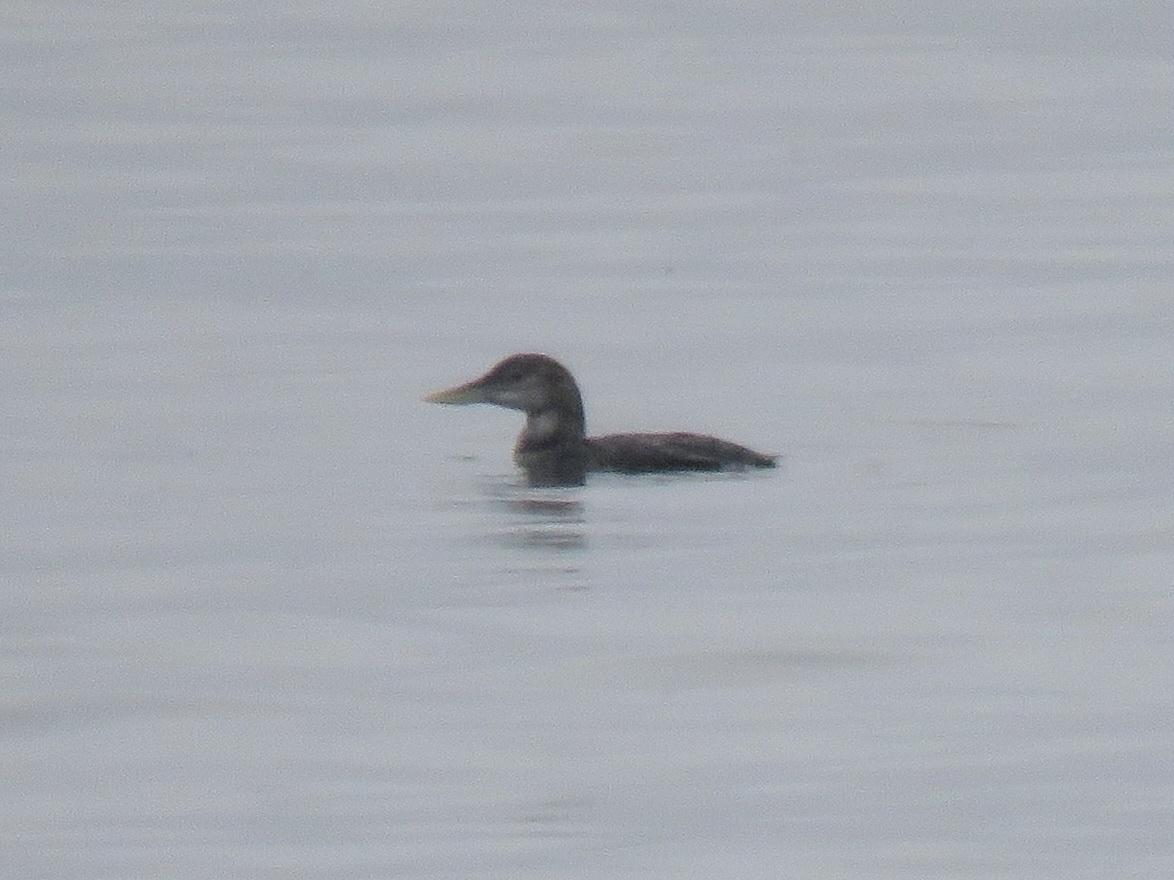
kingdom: Animalia
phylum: Chordata
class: Aves
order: Gaviiformes
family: Gaviidae
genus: Gavia
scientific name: Gavia adamsii
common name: Yellow-billed loon
